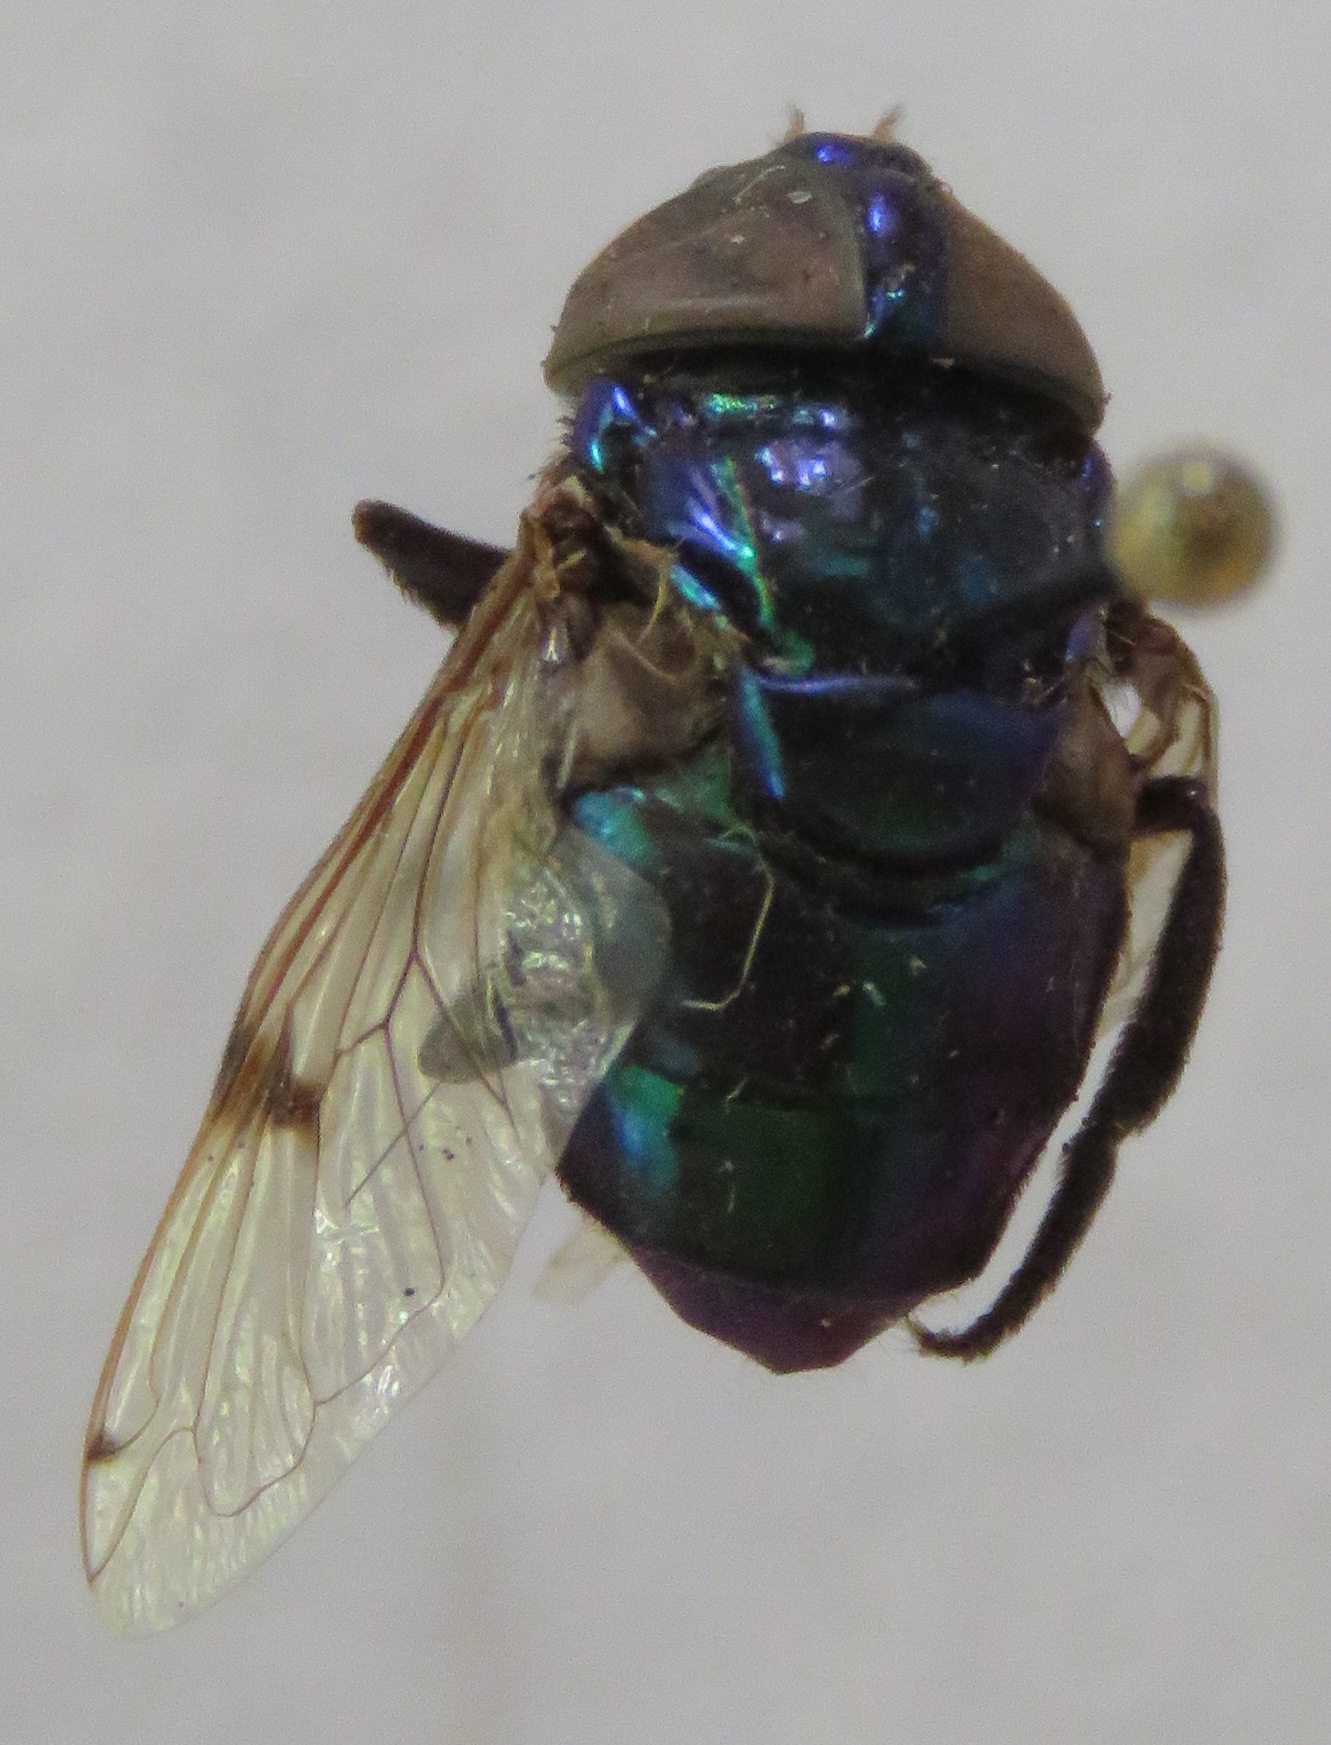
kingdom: Animalia
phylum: Arthropoda
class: Insecta
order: Diptera
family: Syrphidae
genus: Ornidia
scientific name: Ornidia obesa
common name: Syrphid fly
